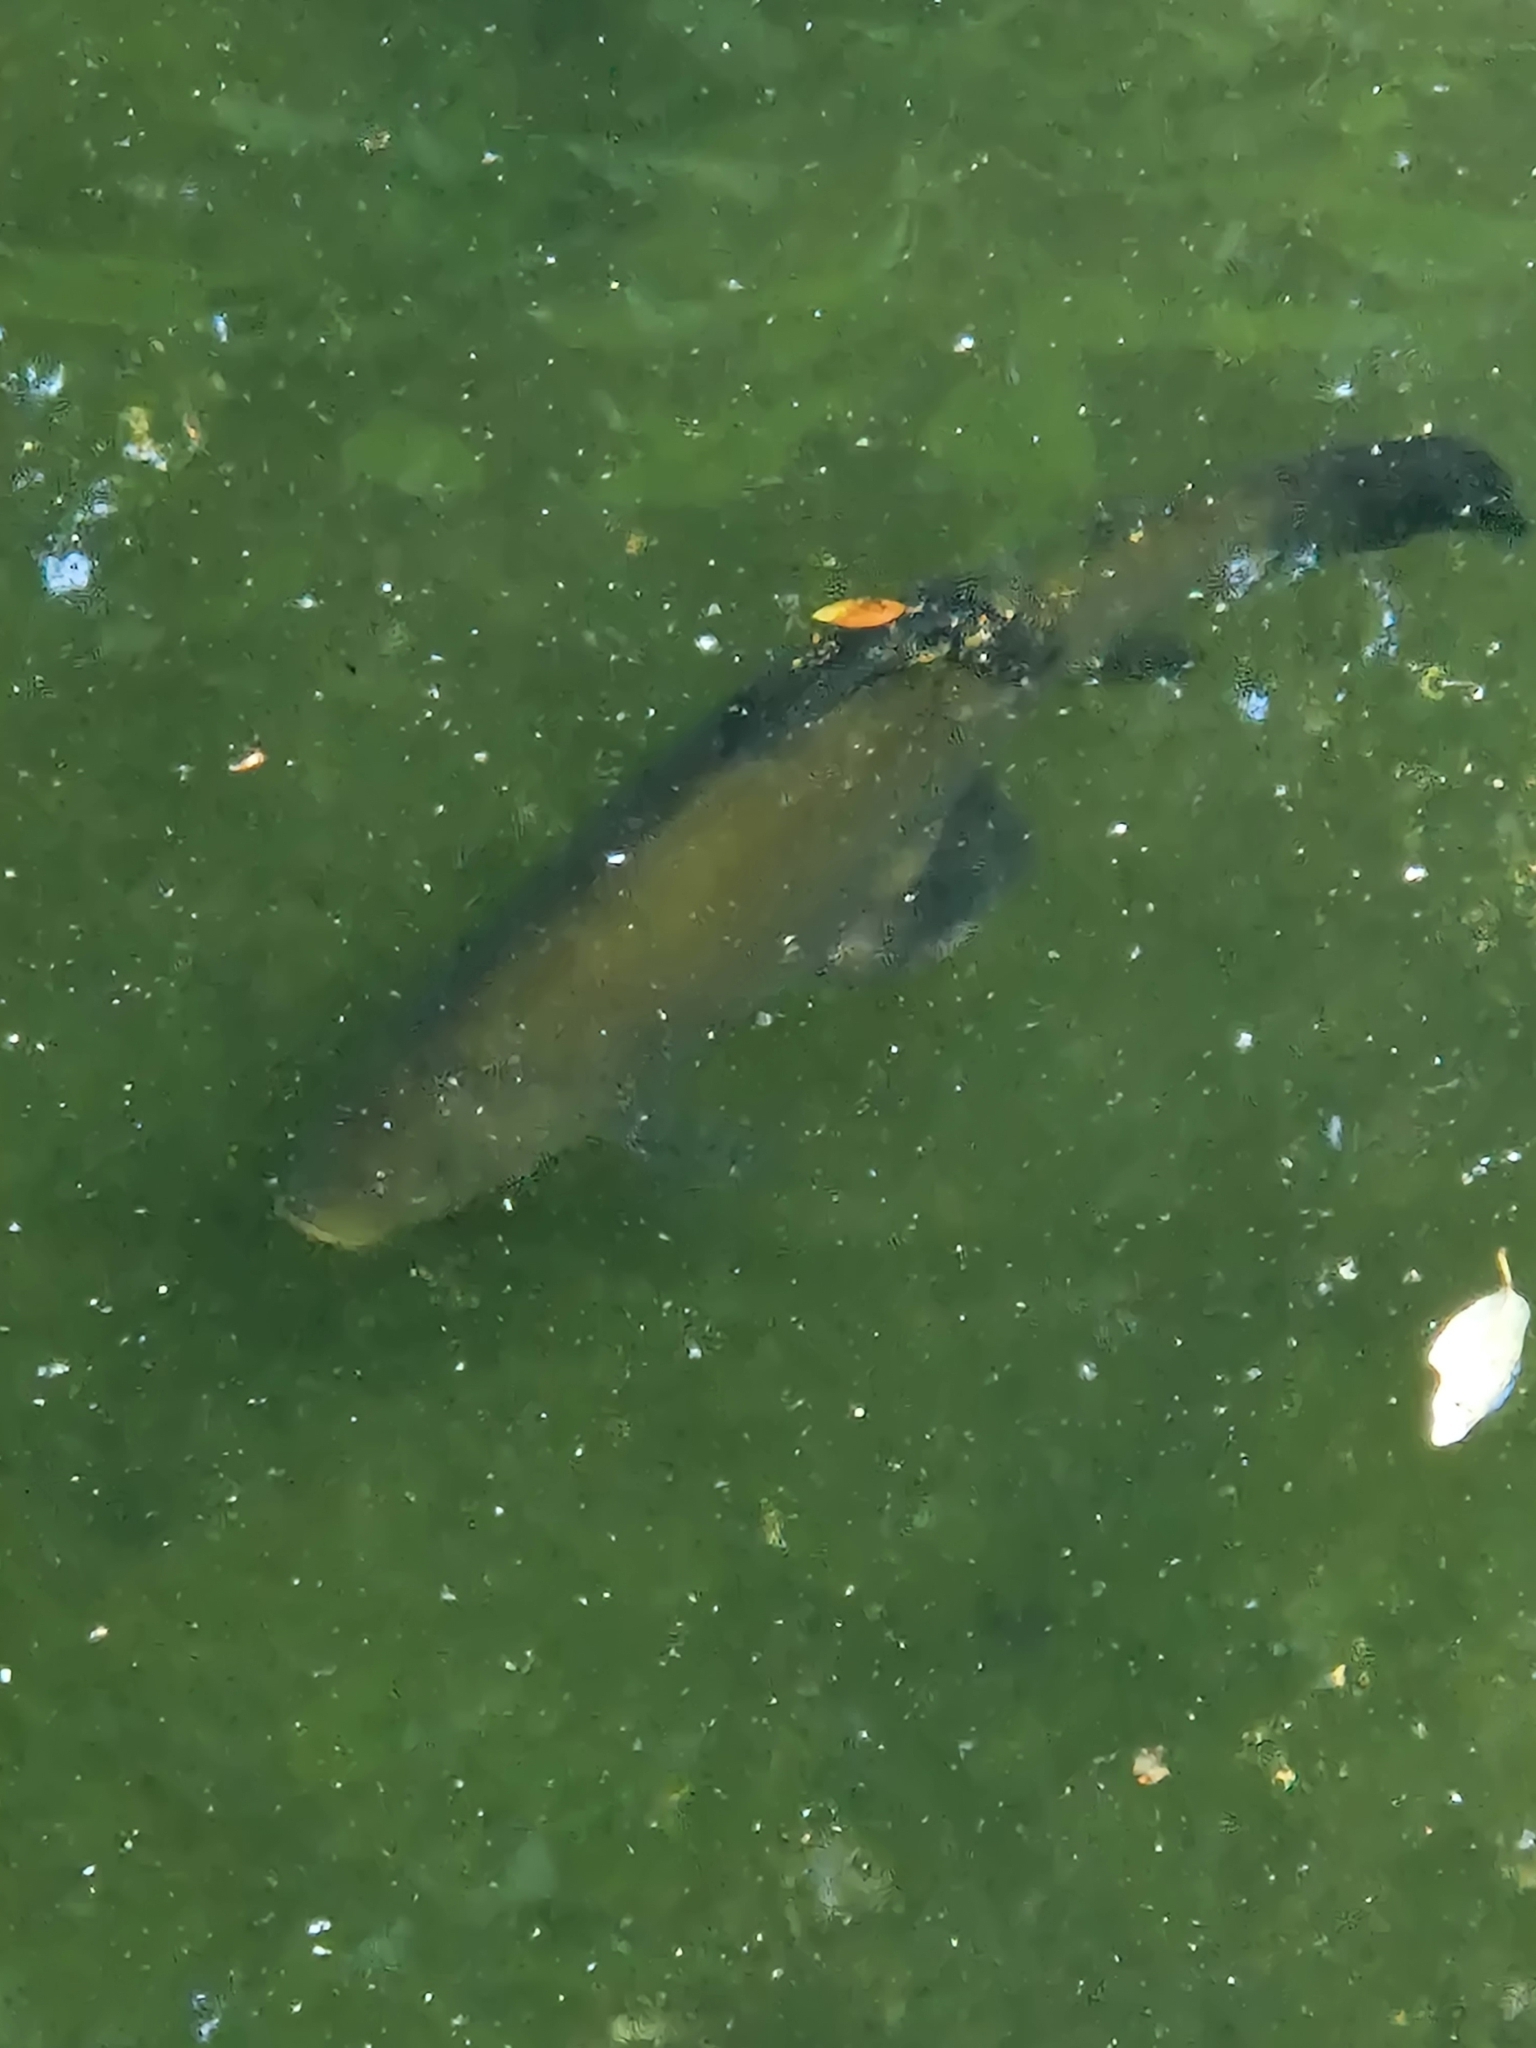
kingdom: Animalia
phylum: Chordata
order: Cypriniformes
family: Cyprinidae
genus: Tinca
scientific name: Tinca tinca
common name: Tench
